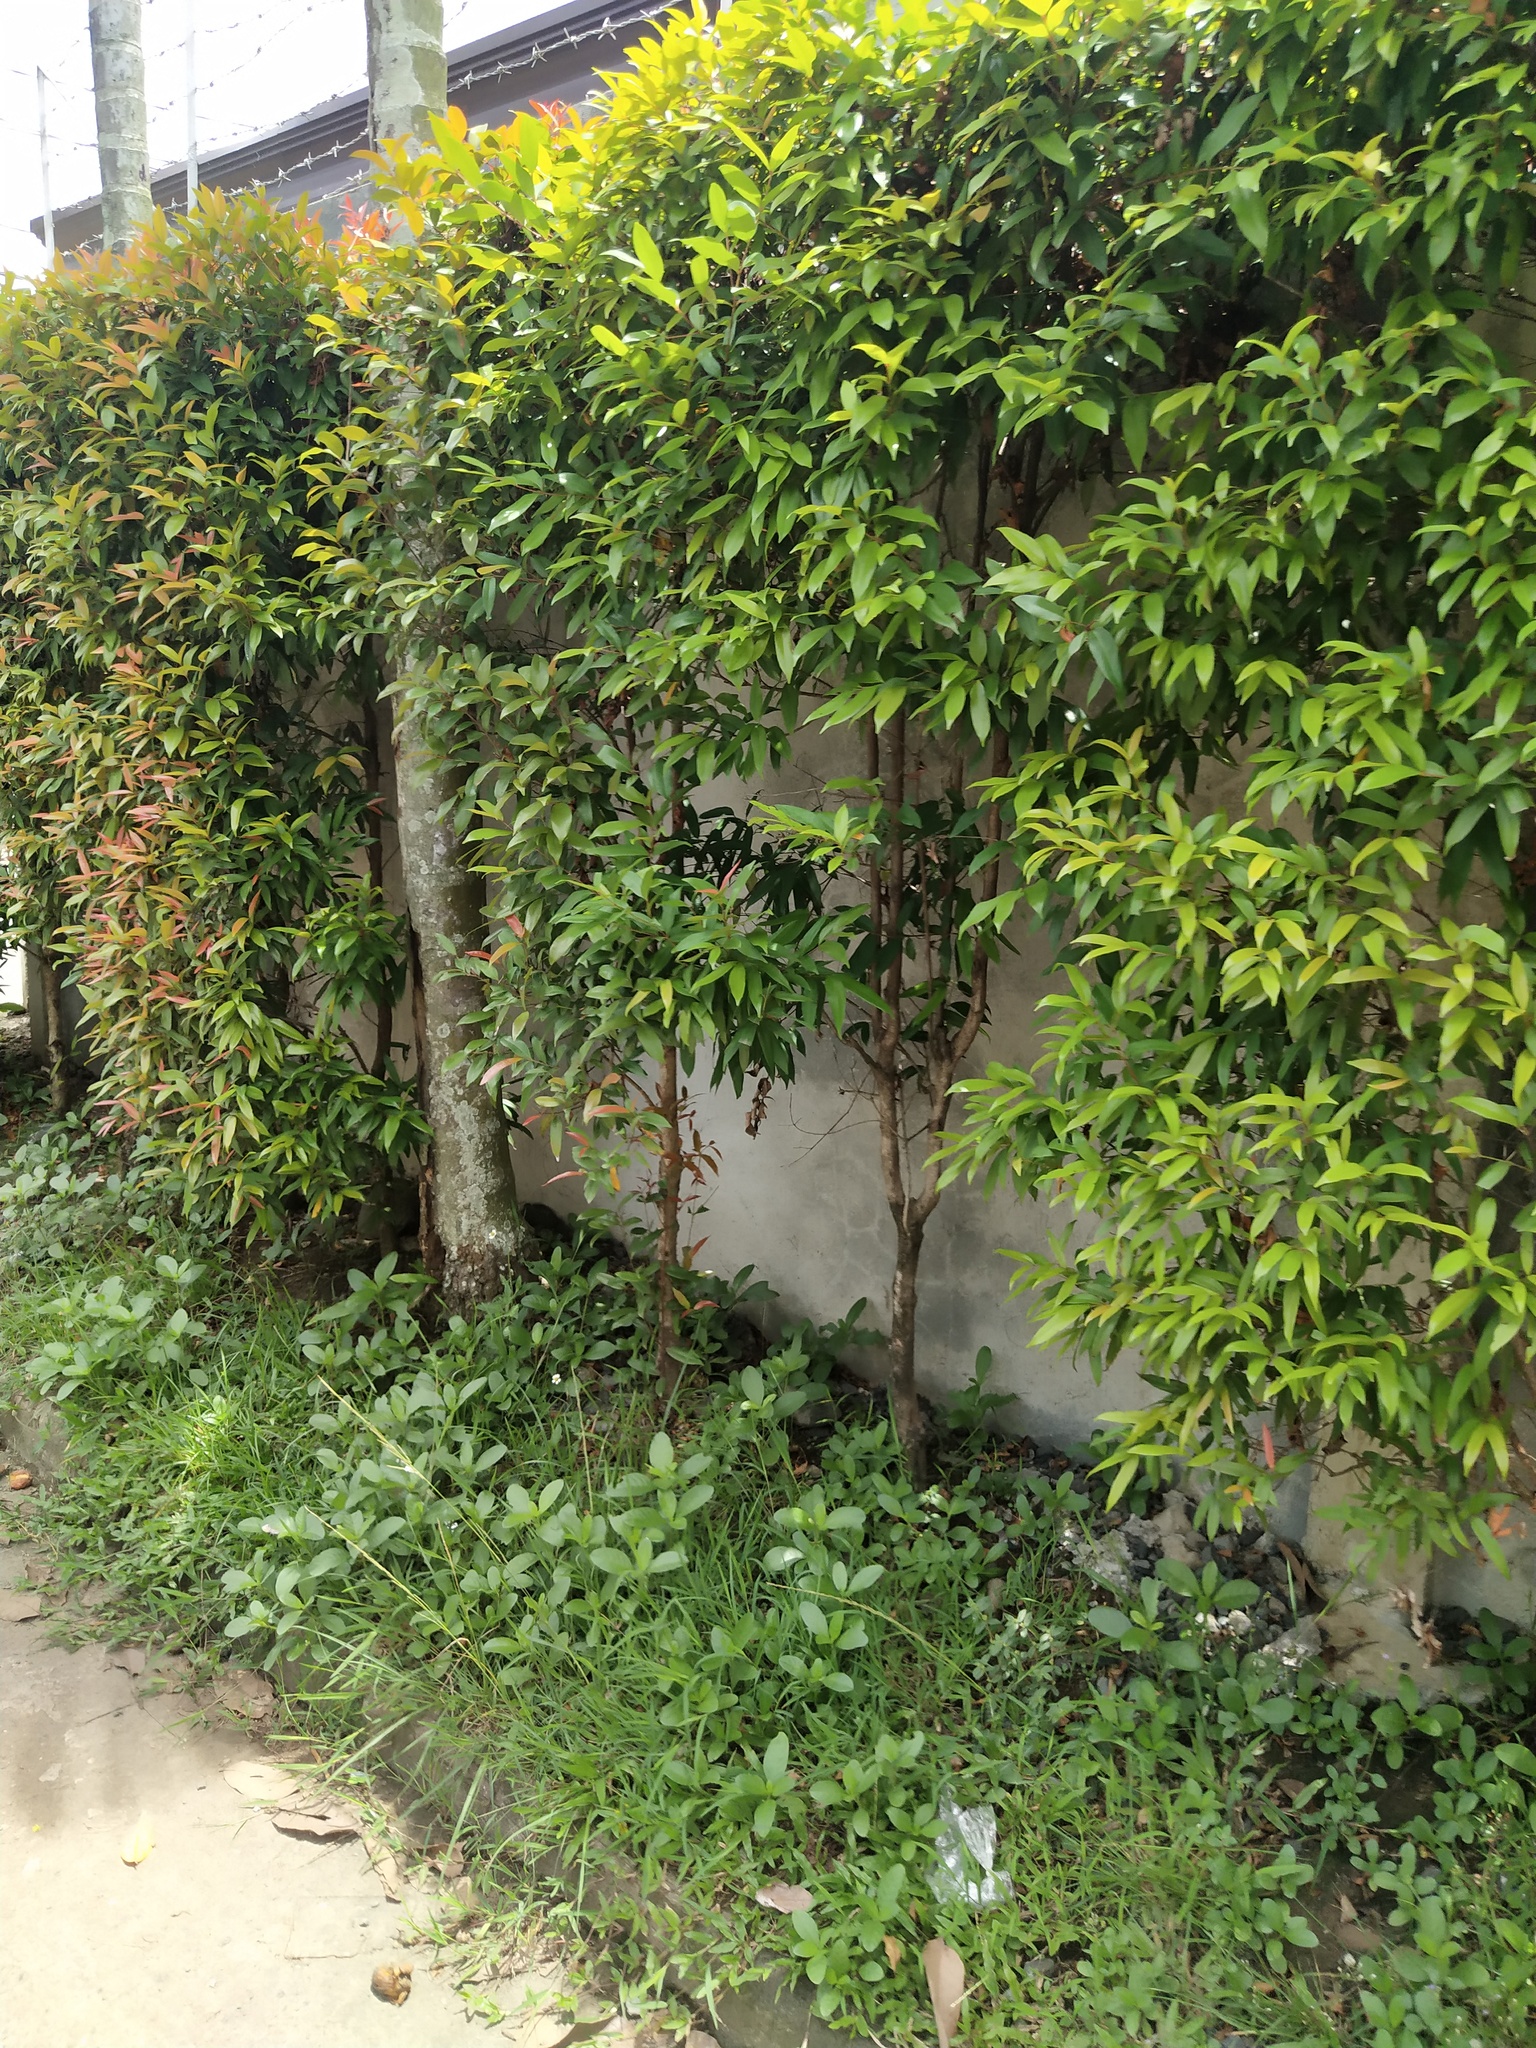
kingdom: Plantae
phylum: Tracheophyta
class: Magnoliopsida
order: Myrtales
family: Myrtaceae
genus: Syzygium
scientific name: Syzygium myrtifolium
